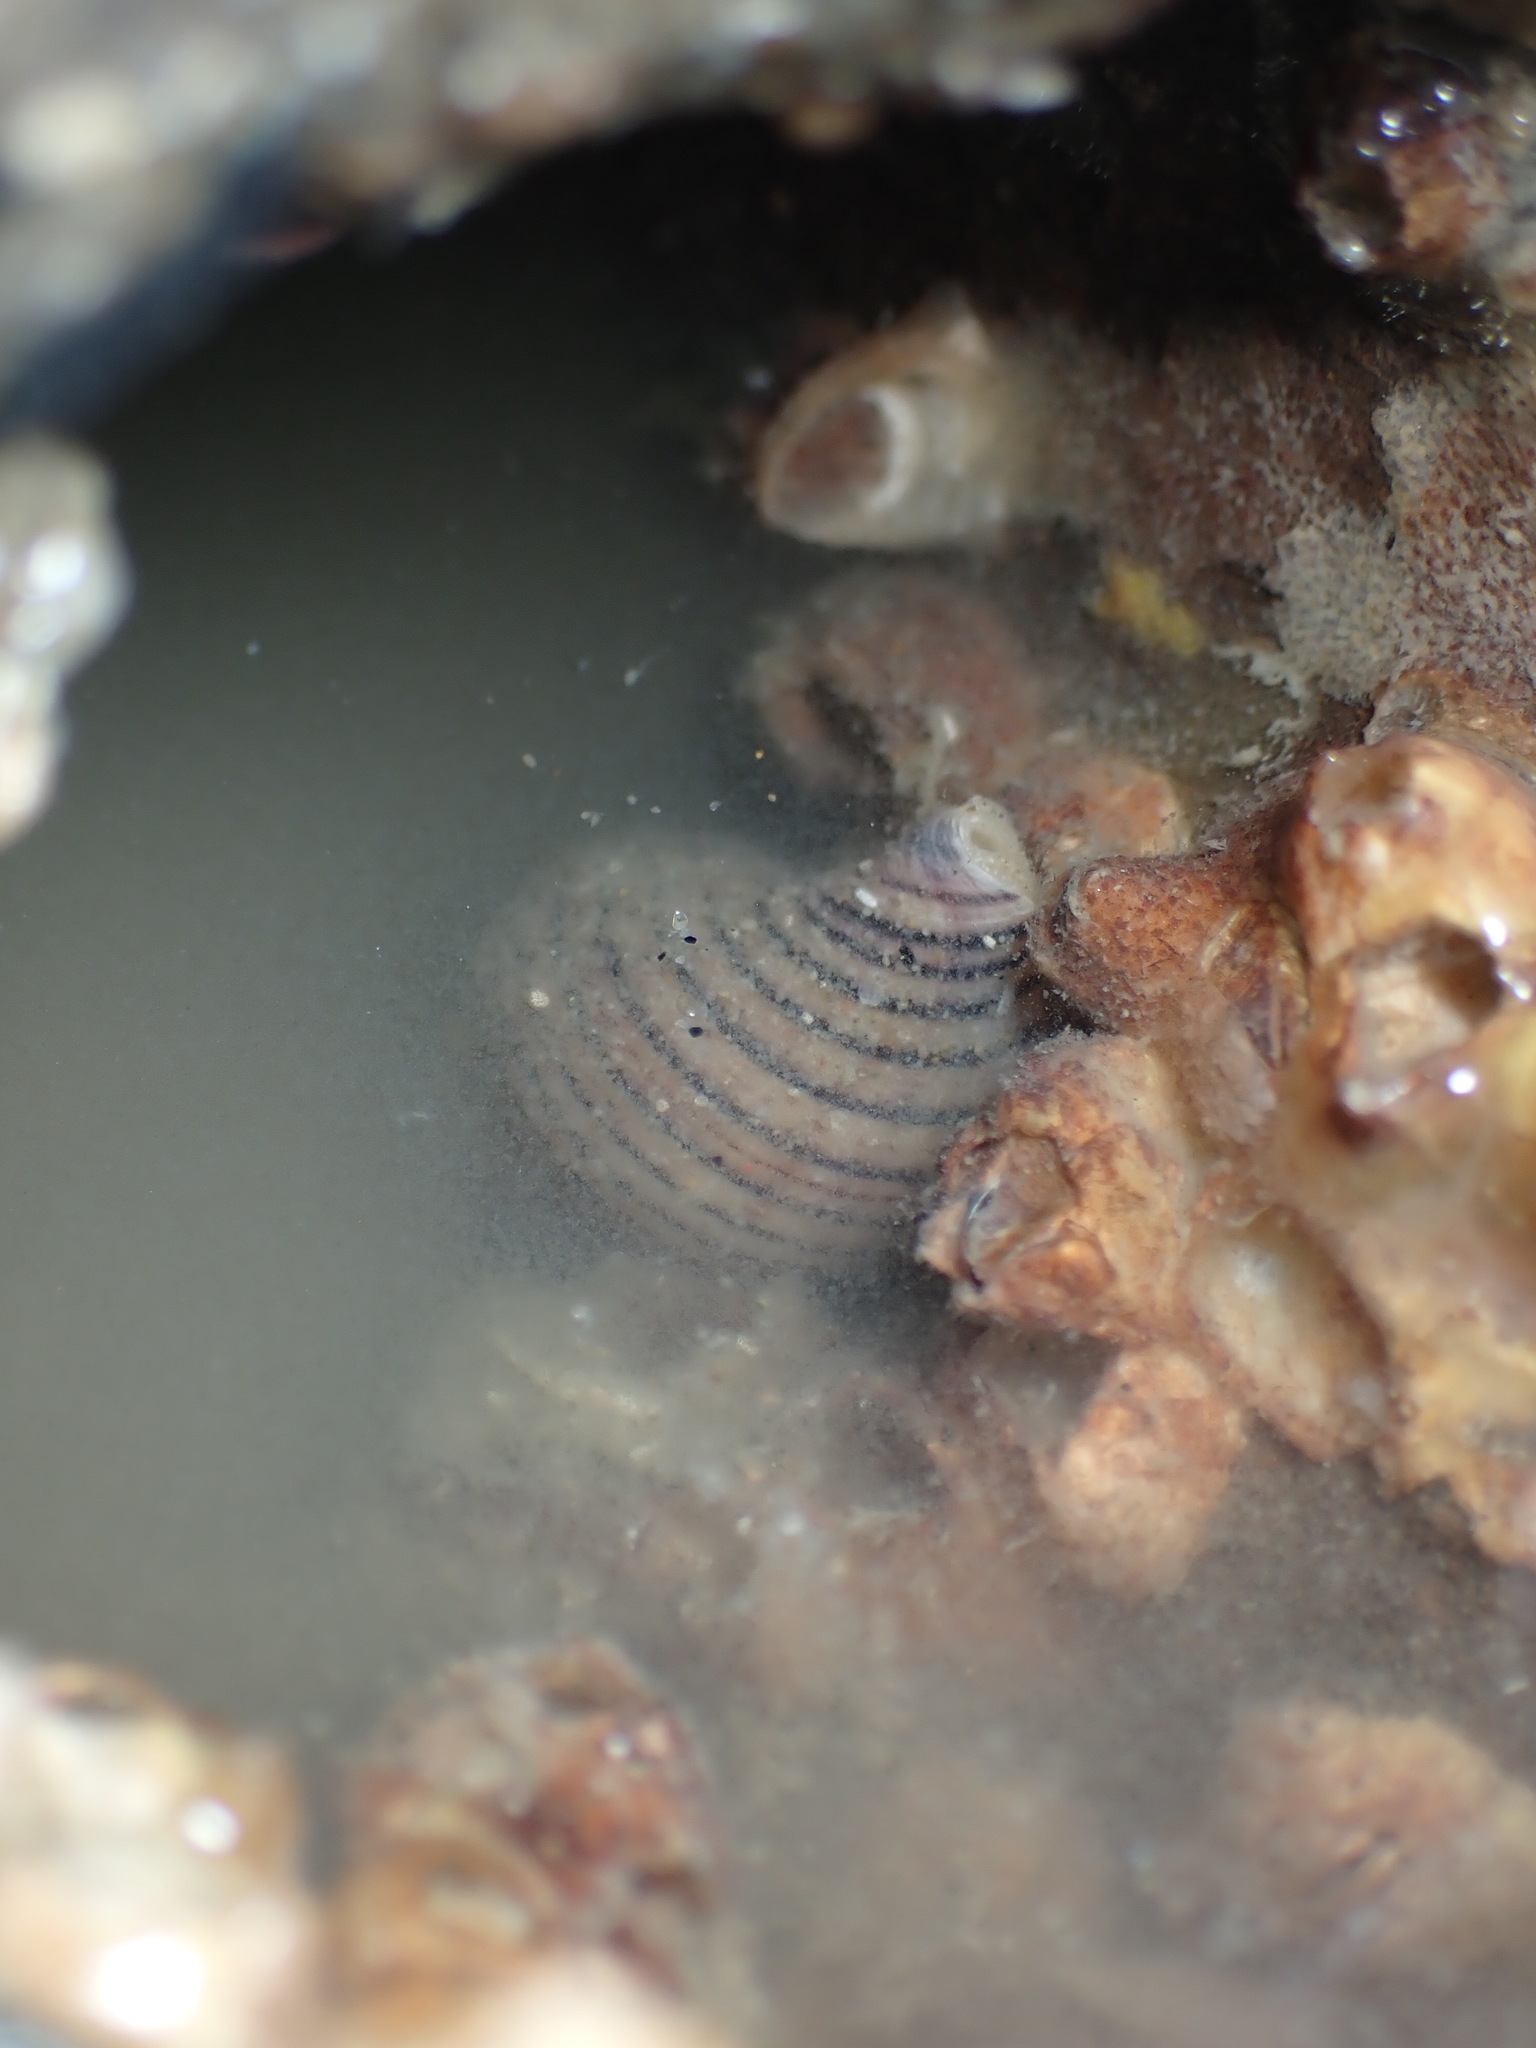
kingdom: Animalia
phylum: Mollusca
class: Gastropoda
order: Neogastropoda
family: Tudiclidae
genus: Buccinulum
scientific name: Buccinulum linea
